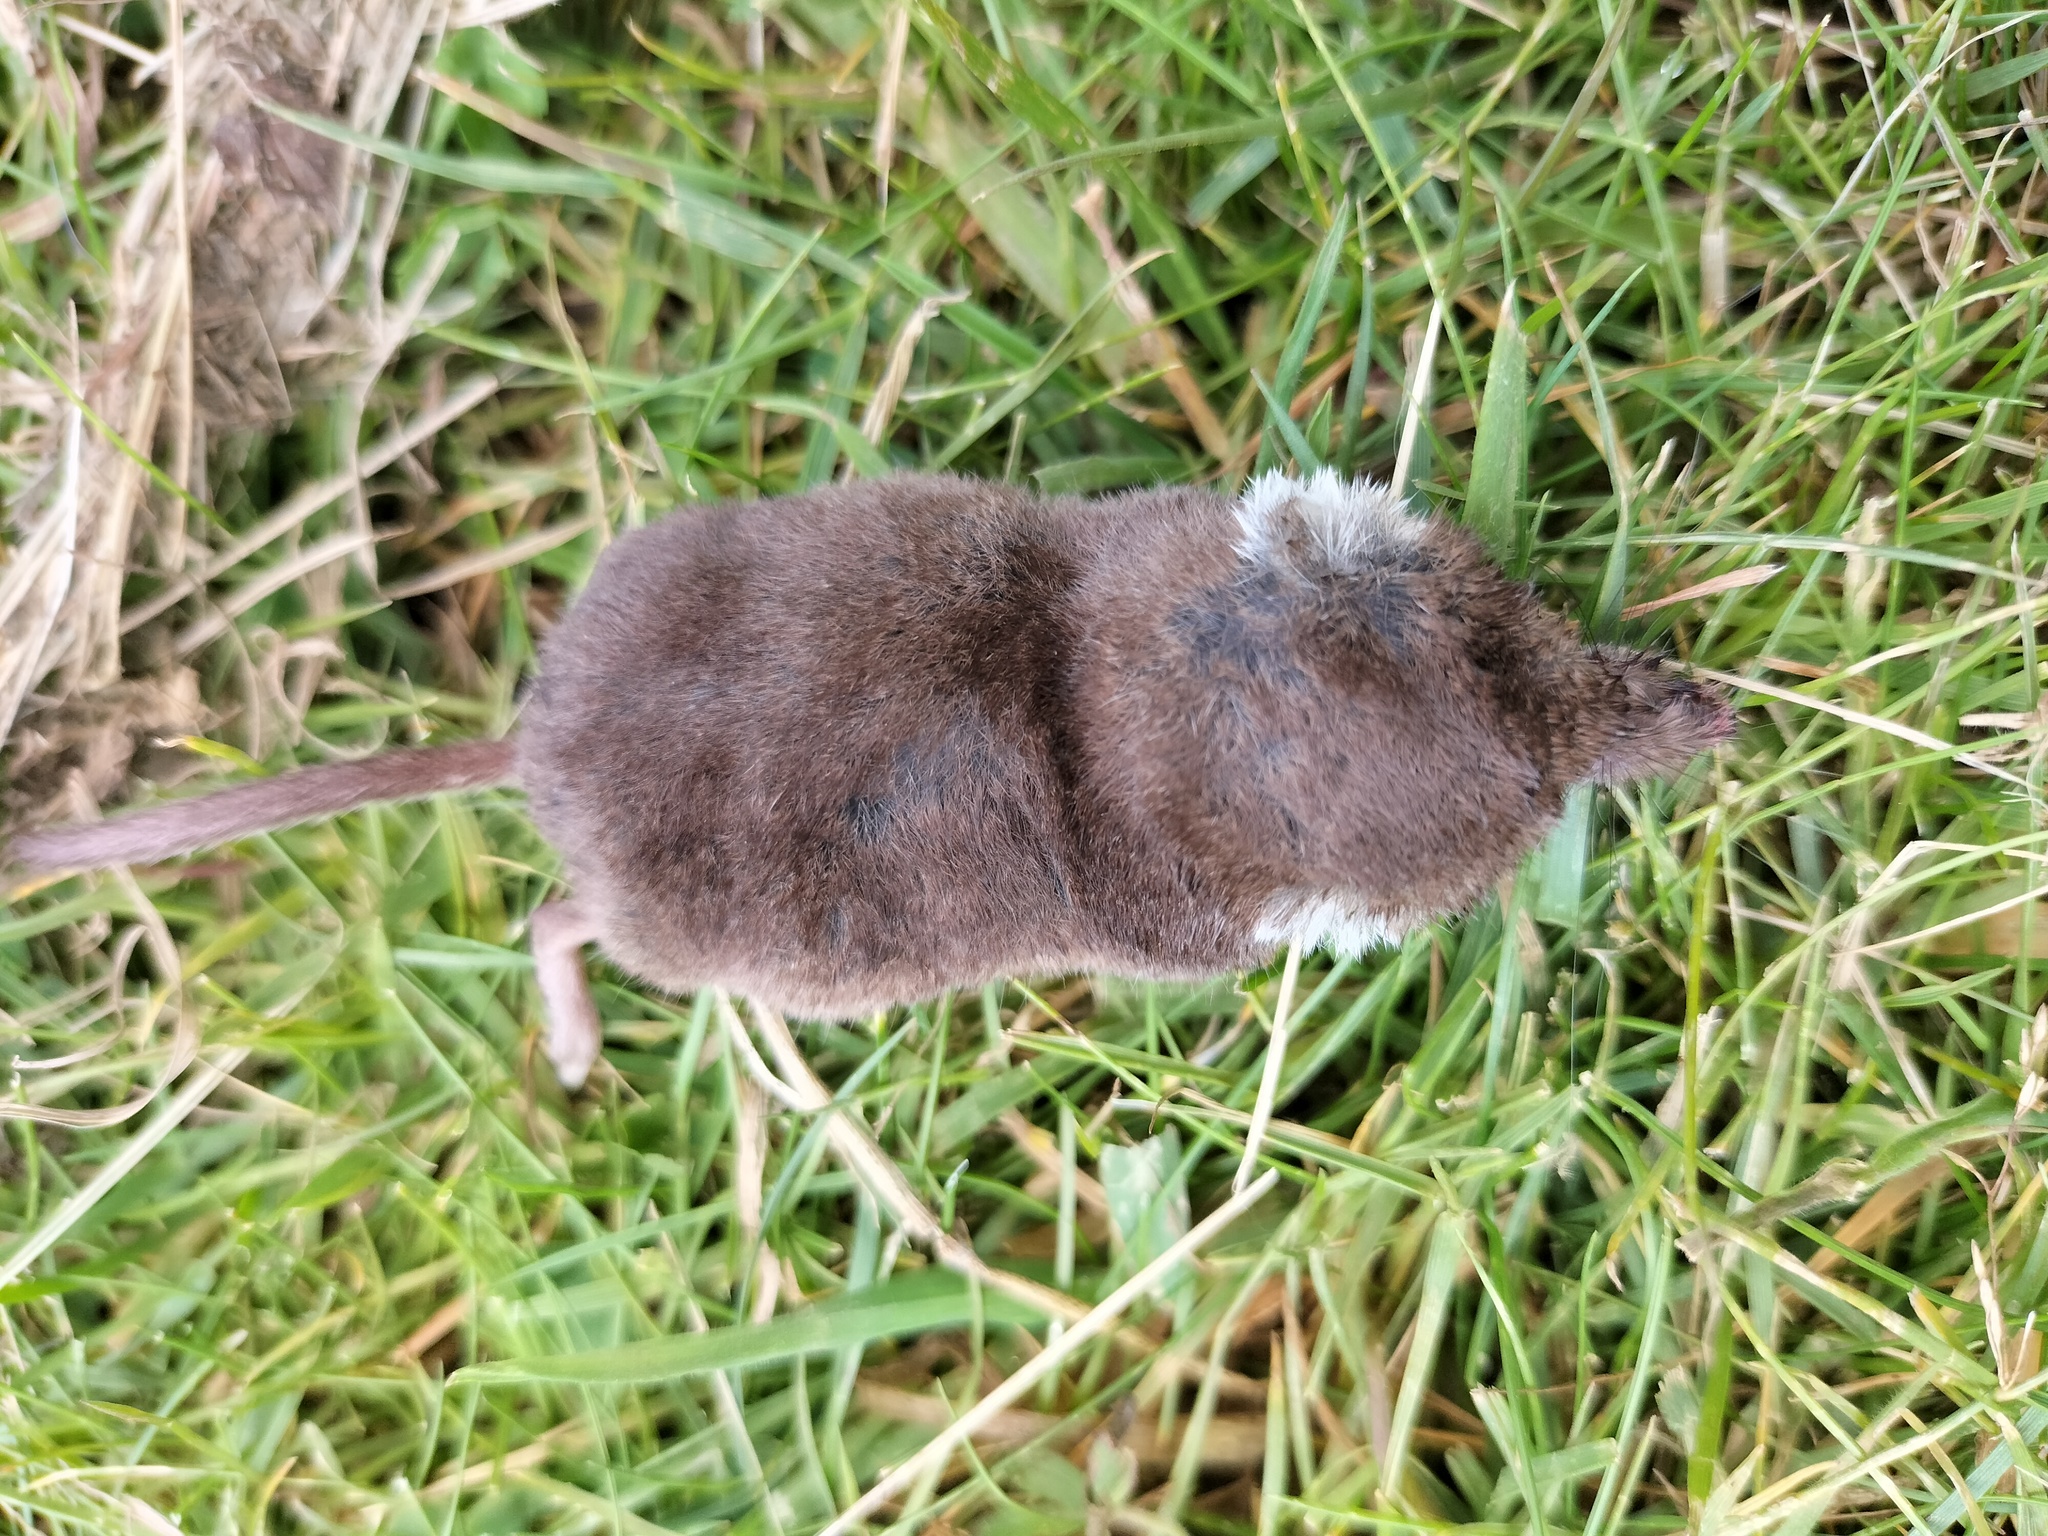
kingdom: Animalia
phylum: Chordata
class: Mammalia
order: Soricomorpha
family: Soricidae
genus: Sorex
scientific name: Sorex araneus
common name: Common shrew
